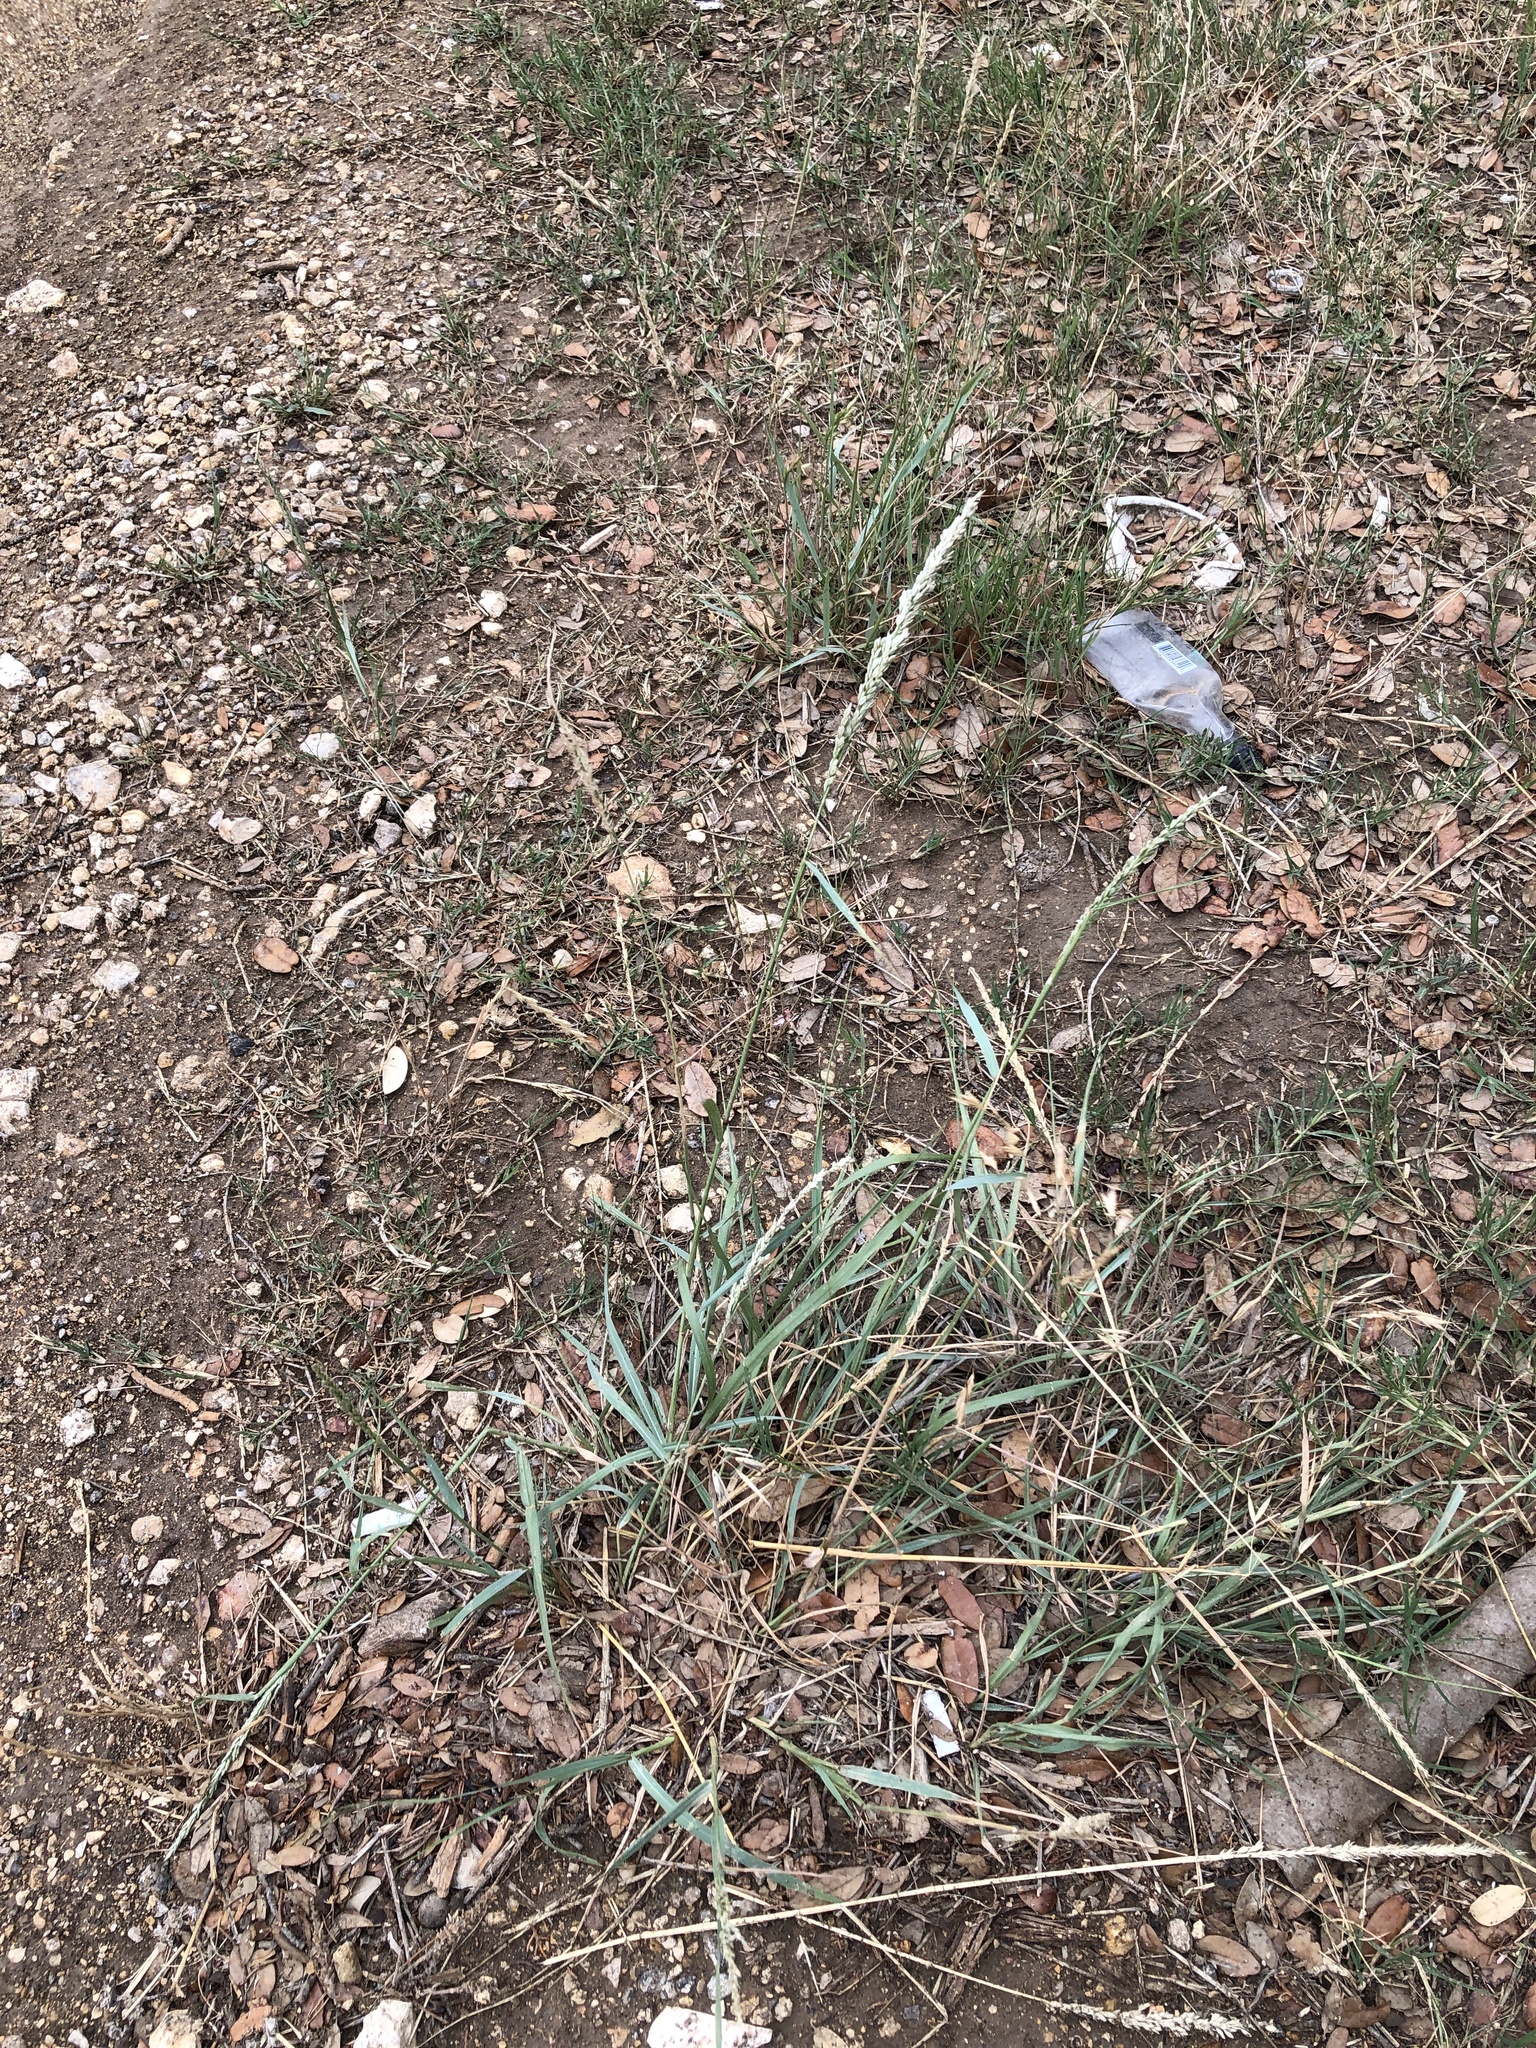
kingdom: Plantae
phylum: Tracheophyta
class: Liliopsida
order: Poales
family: Poaceae
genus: Tridens
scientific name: Tridens albescens
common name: White tridens
